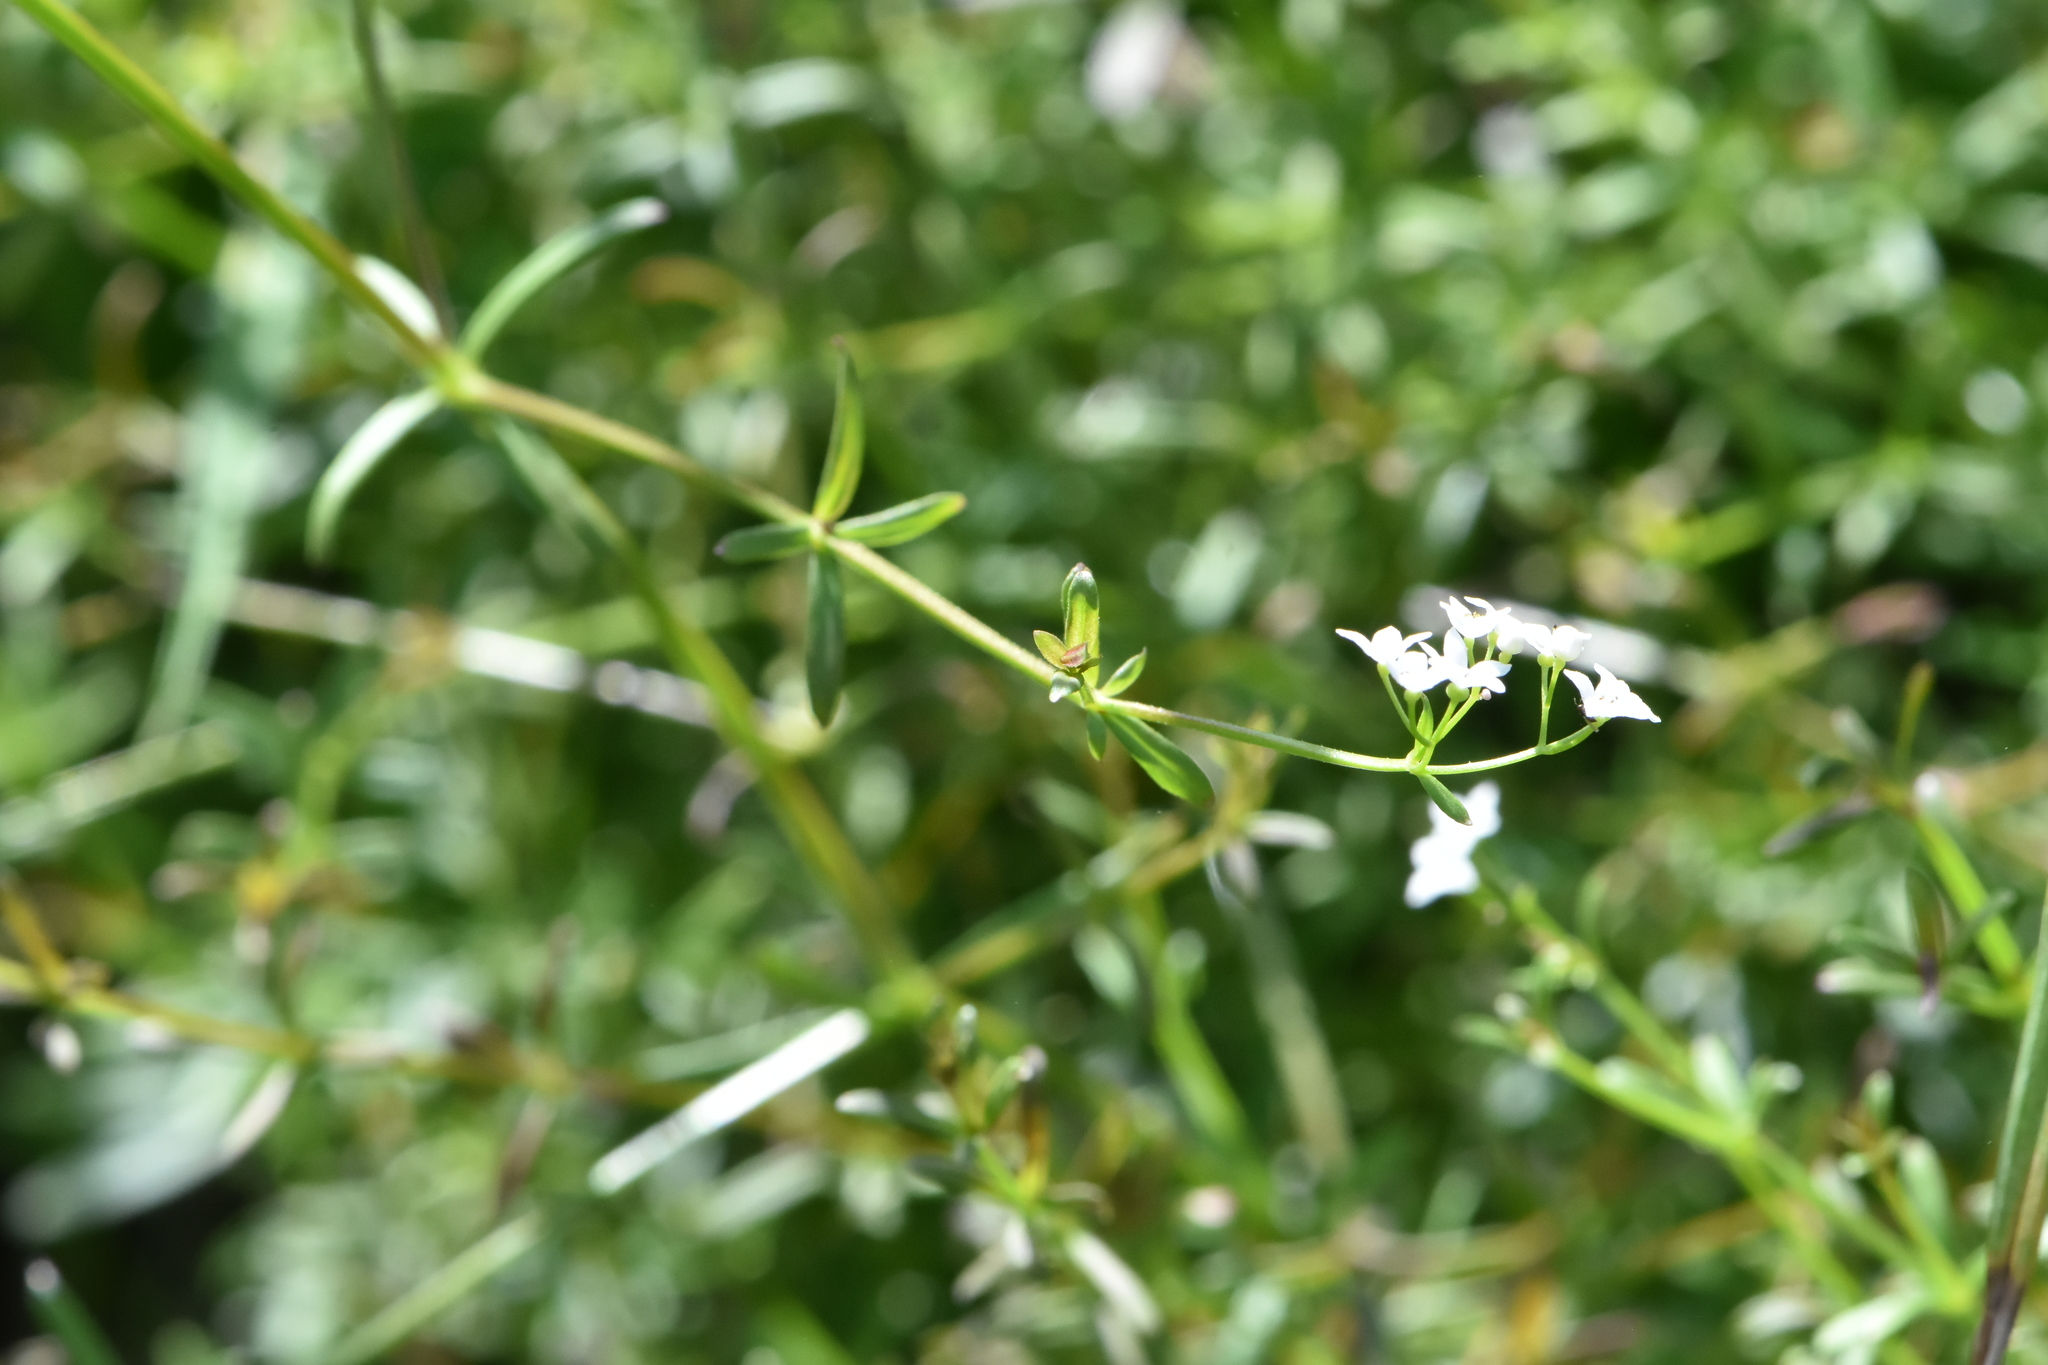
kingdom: Plantae
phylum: Tracheophyta
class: Magnoliopsida
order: Gentianales
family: Rubiaceae
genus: Galium
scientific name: Galium palustre
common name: Common marsh-bedstraw
